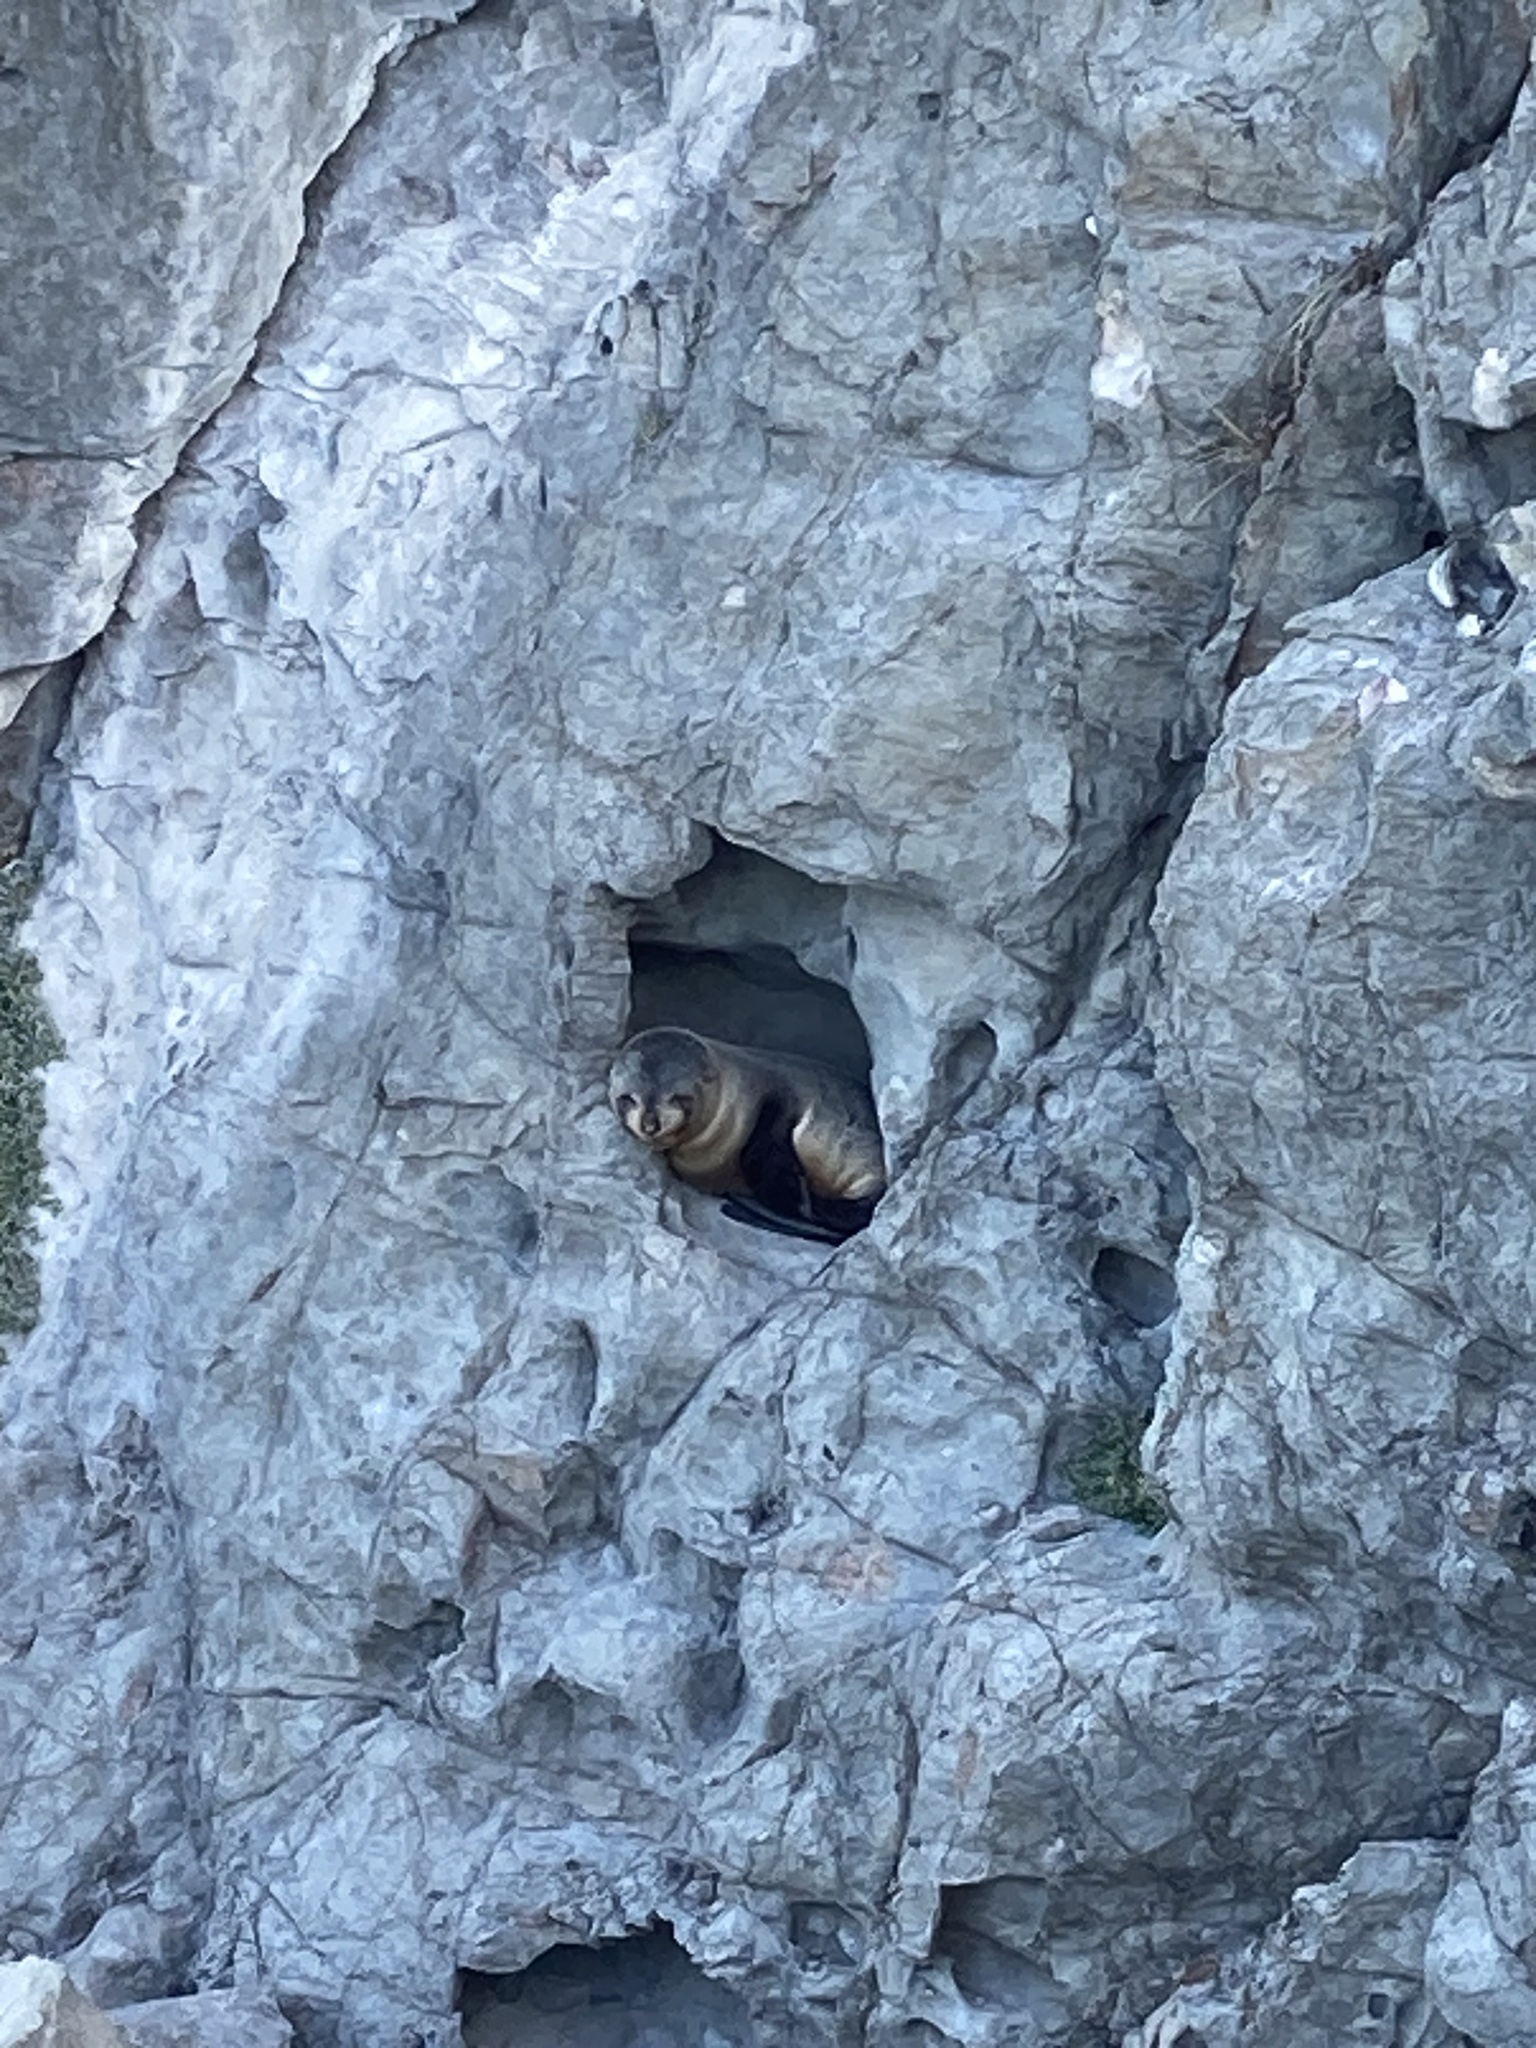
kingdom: Animalia
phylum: Chordata
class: Mammalia
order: Carnivora
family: Otariidae
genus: Arctocephalus
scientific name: Arctocephalus forsteri
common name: New zealand fur seal
